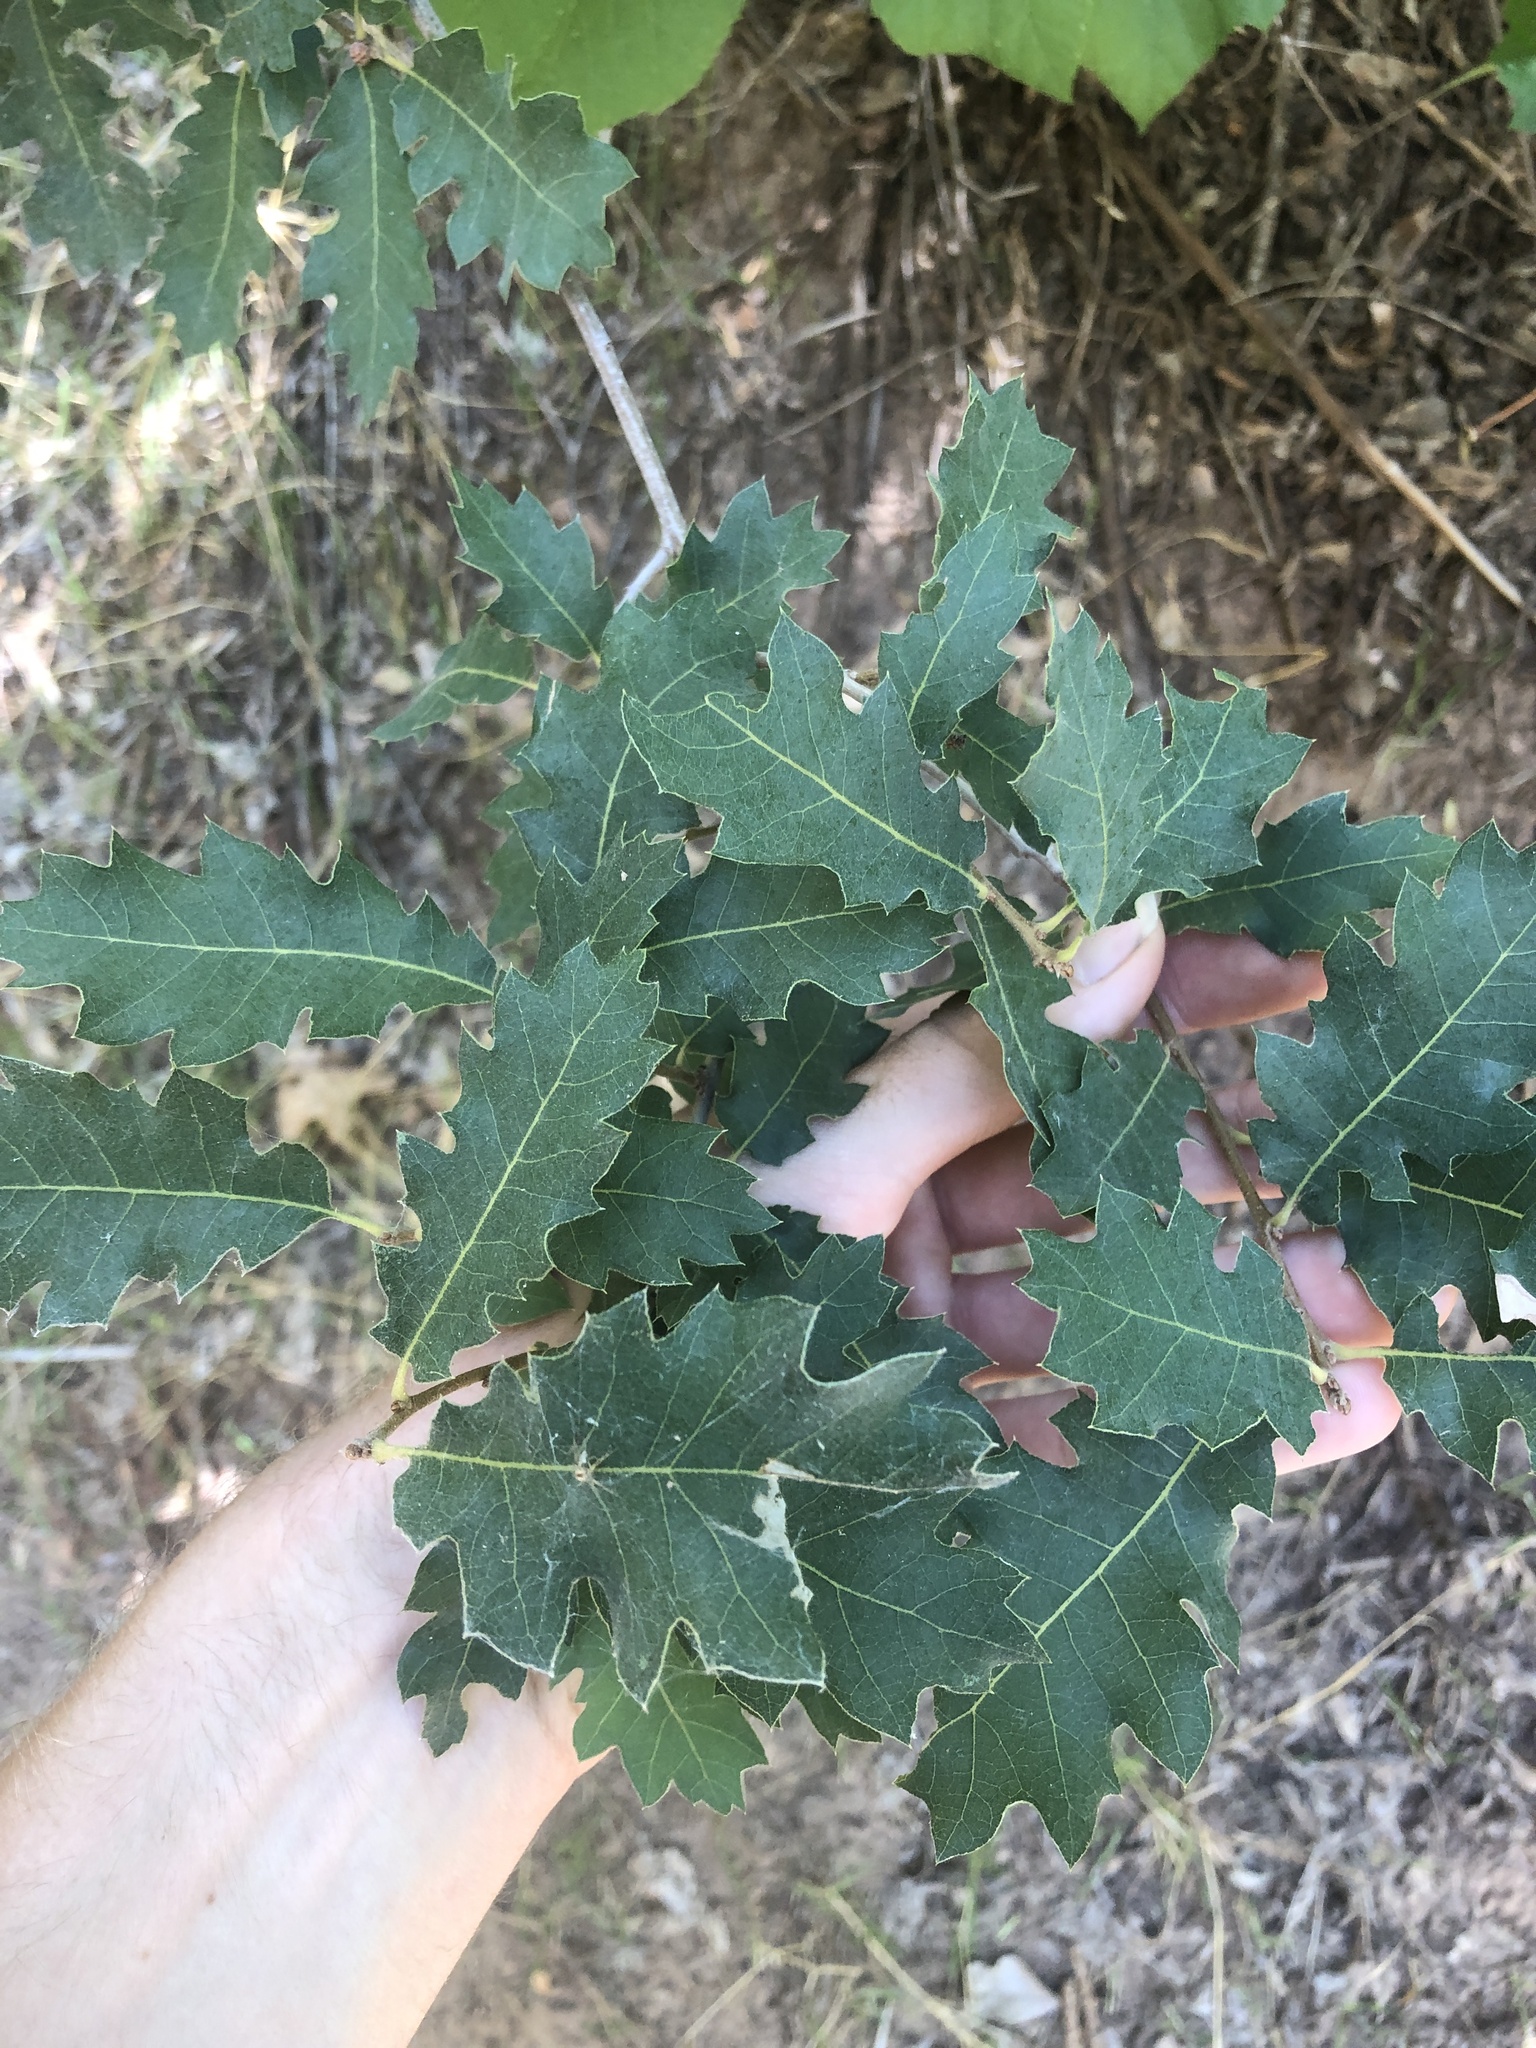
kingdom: Plantae
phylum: Tracheophyta
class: Magnoliopsida
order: Fagales
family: Fagaceae
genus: Quercus
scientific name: Quercus undulata
